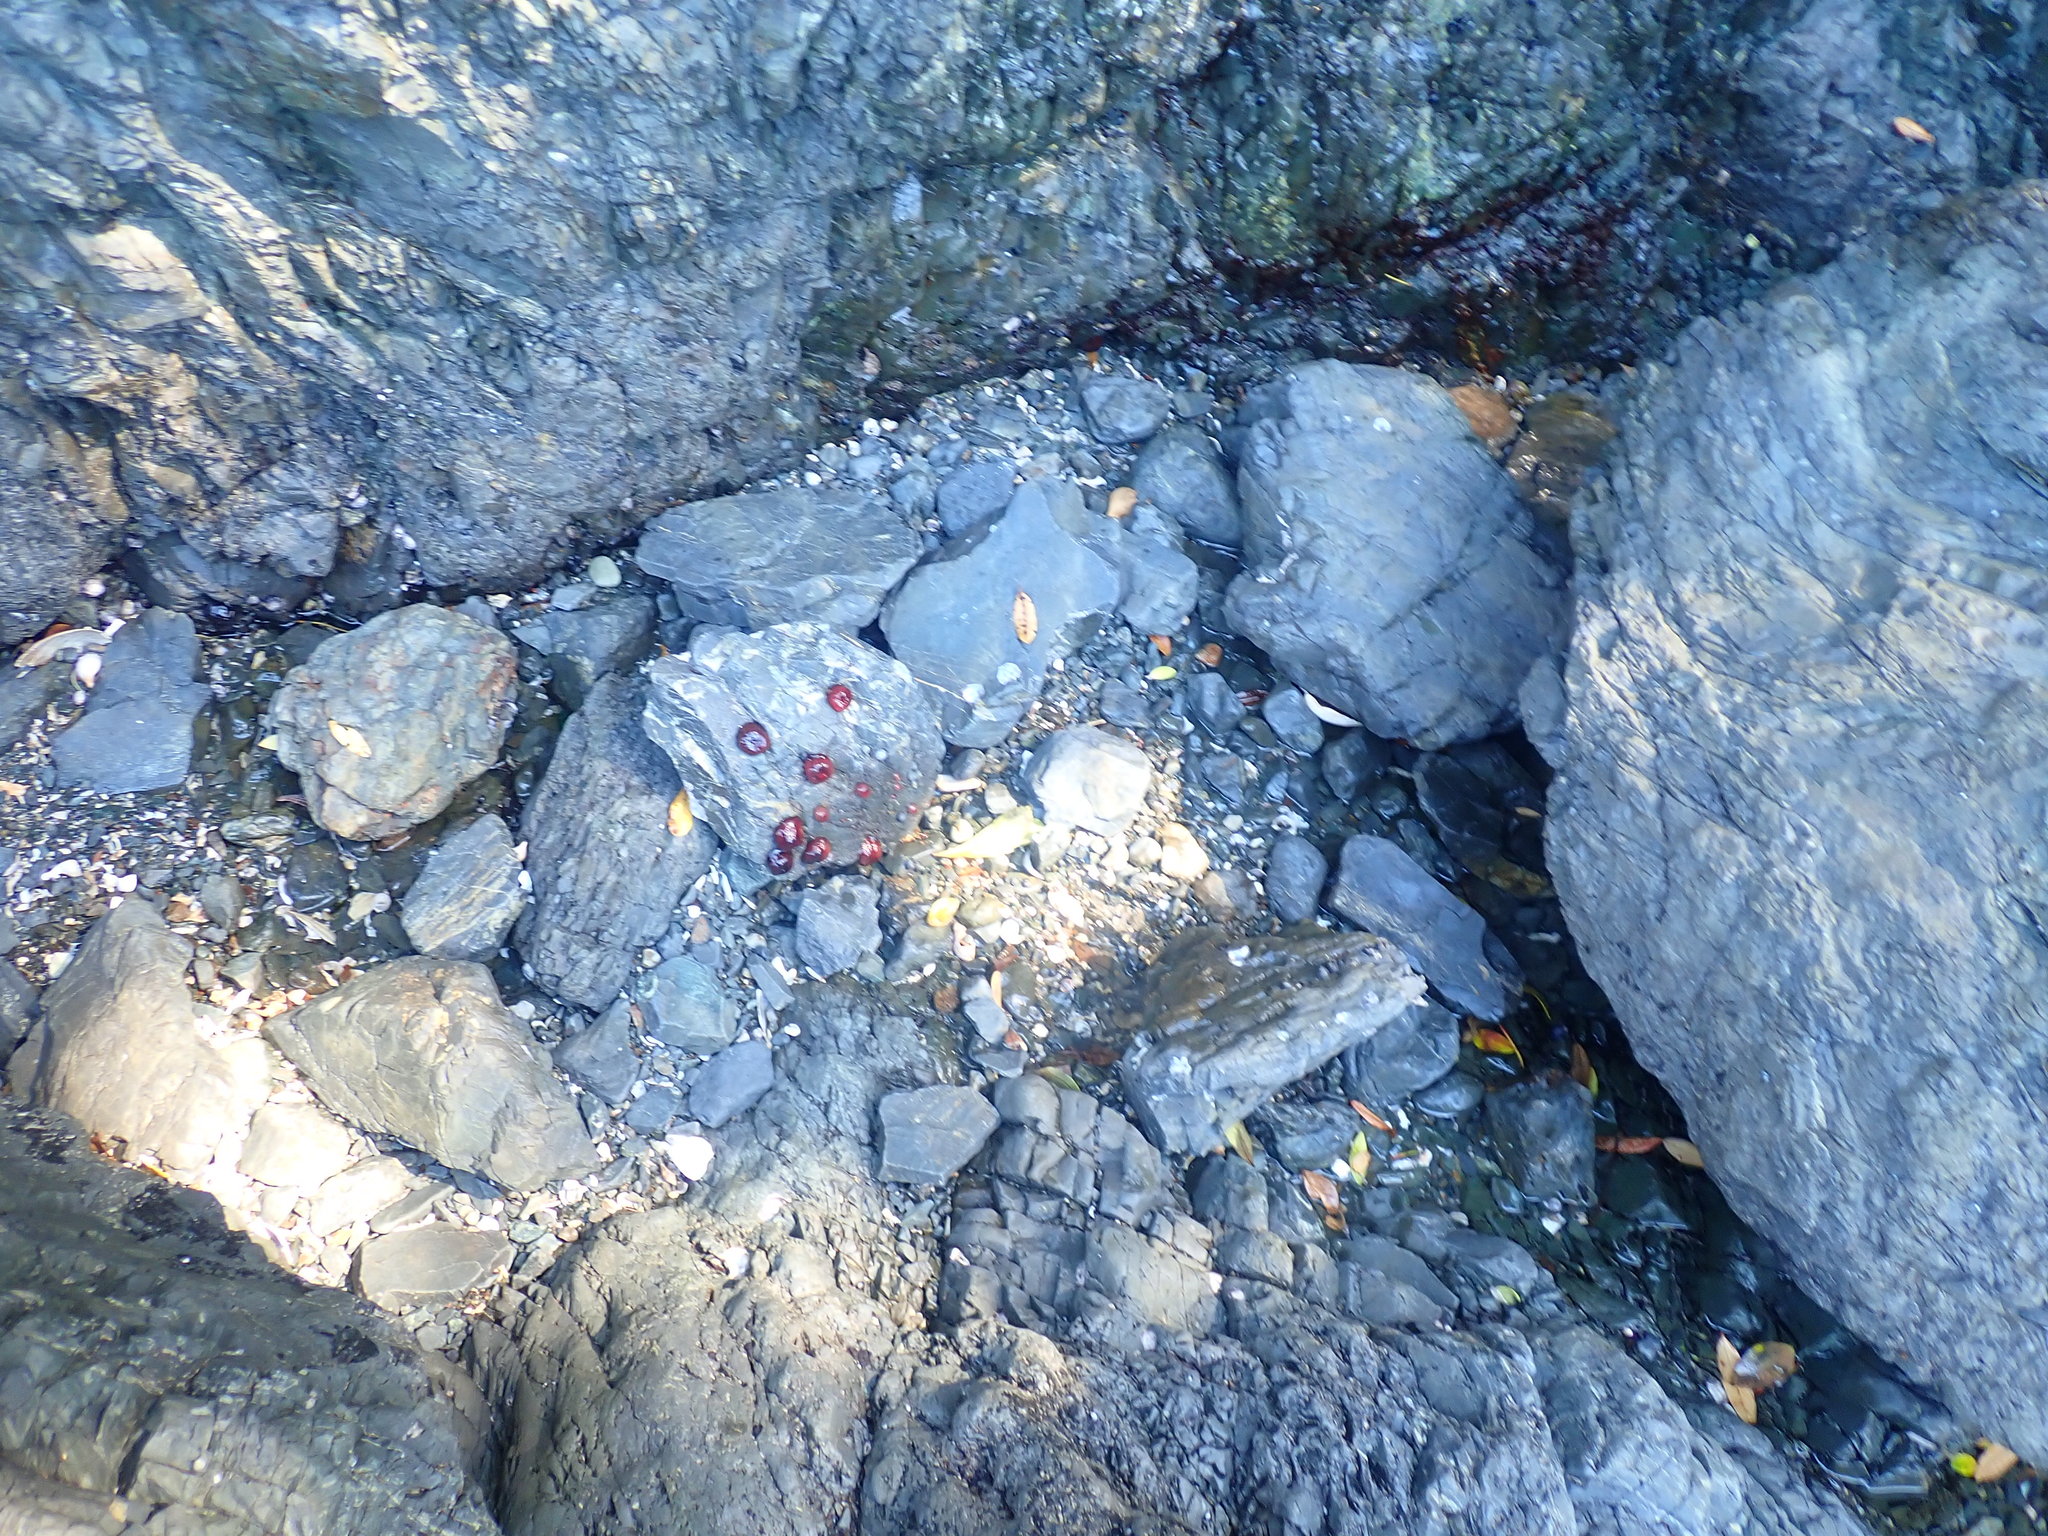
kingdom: Animalia
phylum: Mollusca
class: Gastropoda
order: Trochida
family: Trochidae
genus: Diloma
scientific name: Diloma bicanaliculatum
